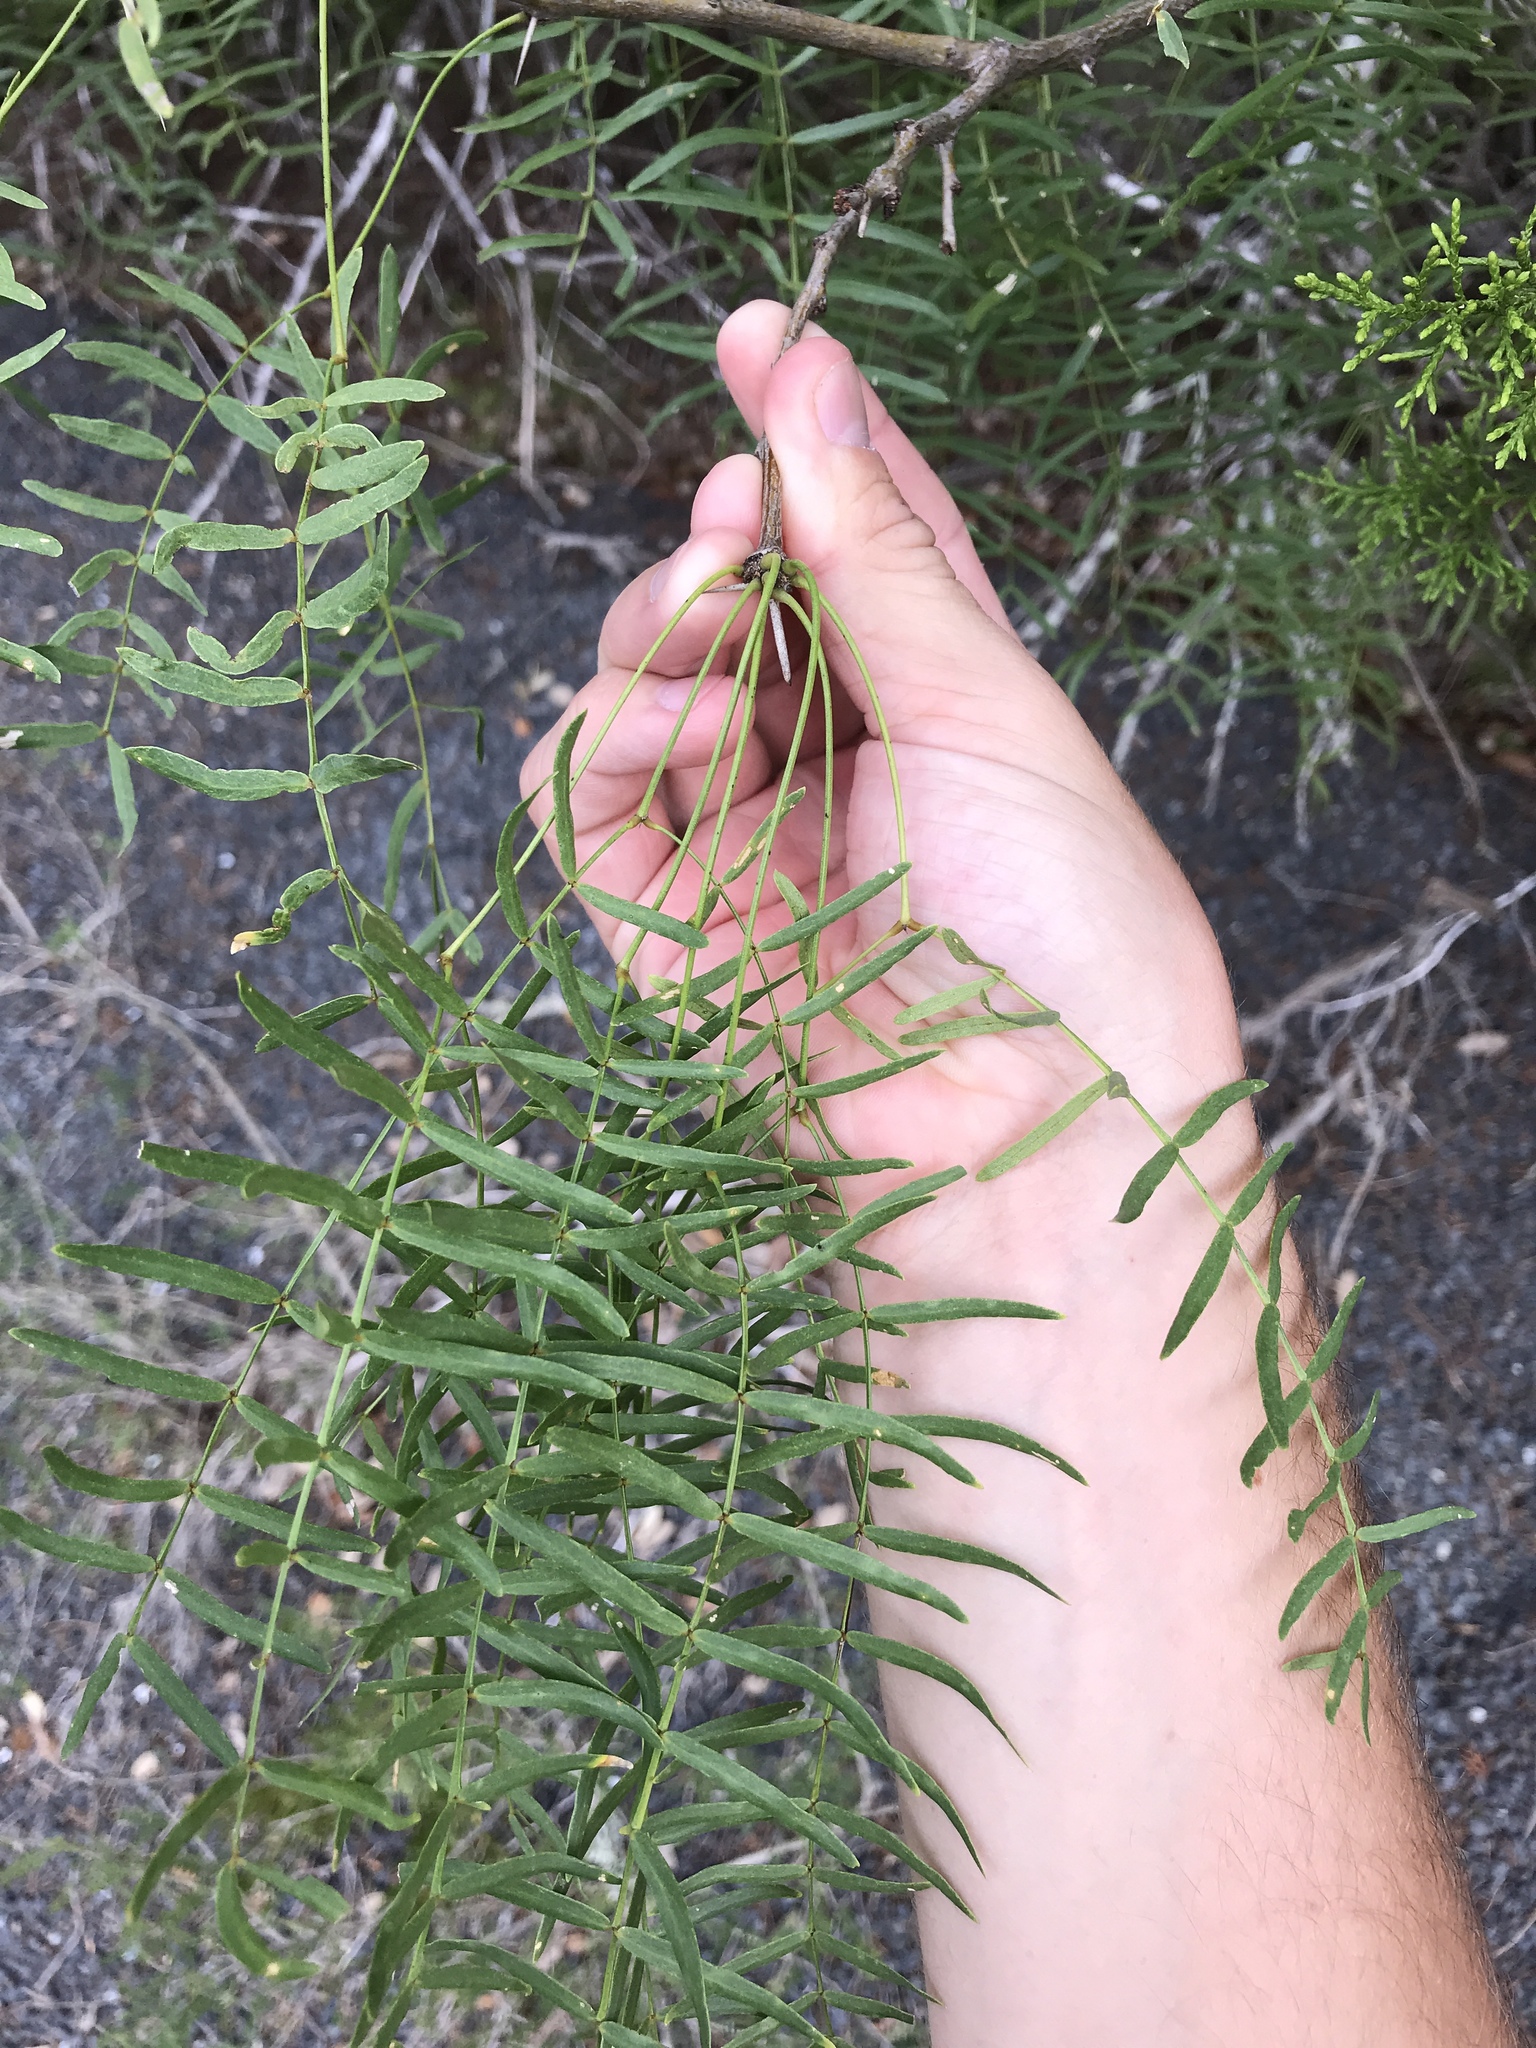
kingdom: Plantae
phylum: Tracheophyta
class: Magnoliopsida
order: Fabales
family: Fabaceae
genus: Prosopis
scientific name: Prosopis glandulosa
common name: Honey mesquite
